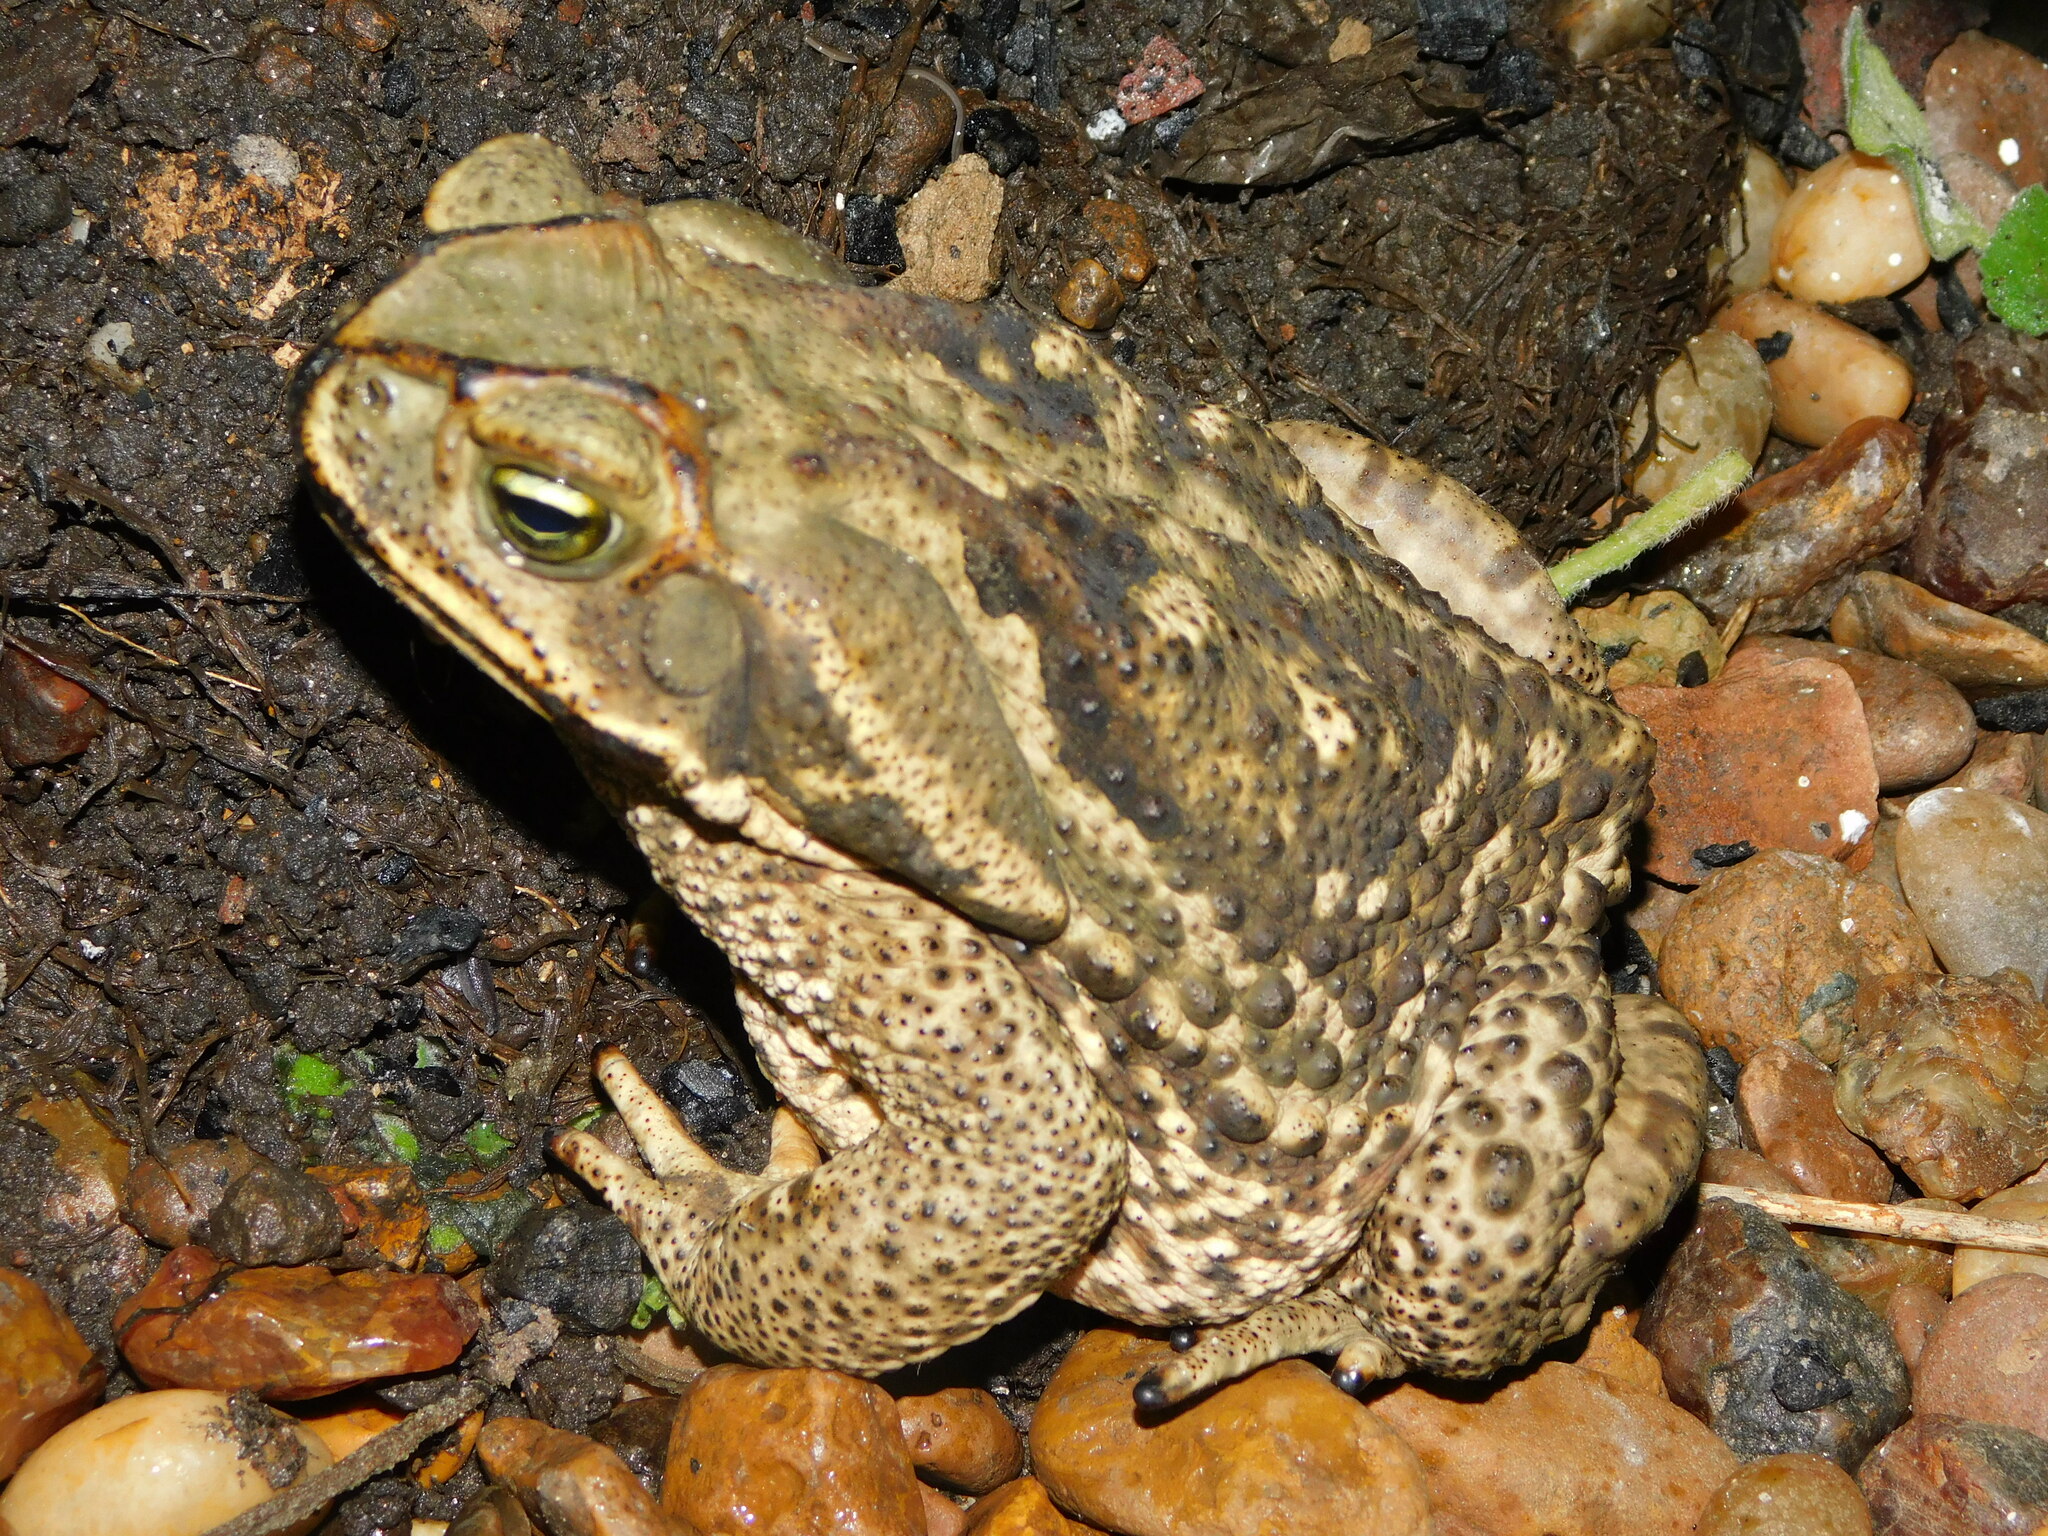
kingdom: Animalia
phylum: Chordata
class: Amphibia
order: Anura
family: Bufonidae
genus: Rhinella
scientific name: Rhinella diptycha
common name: Cope's toad
